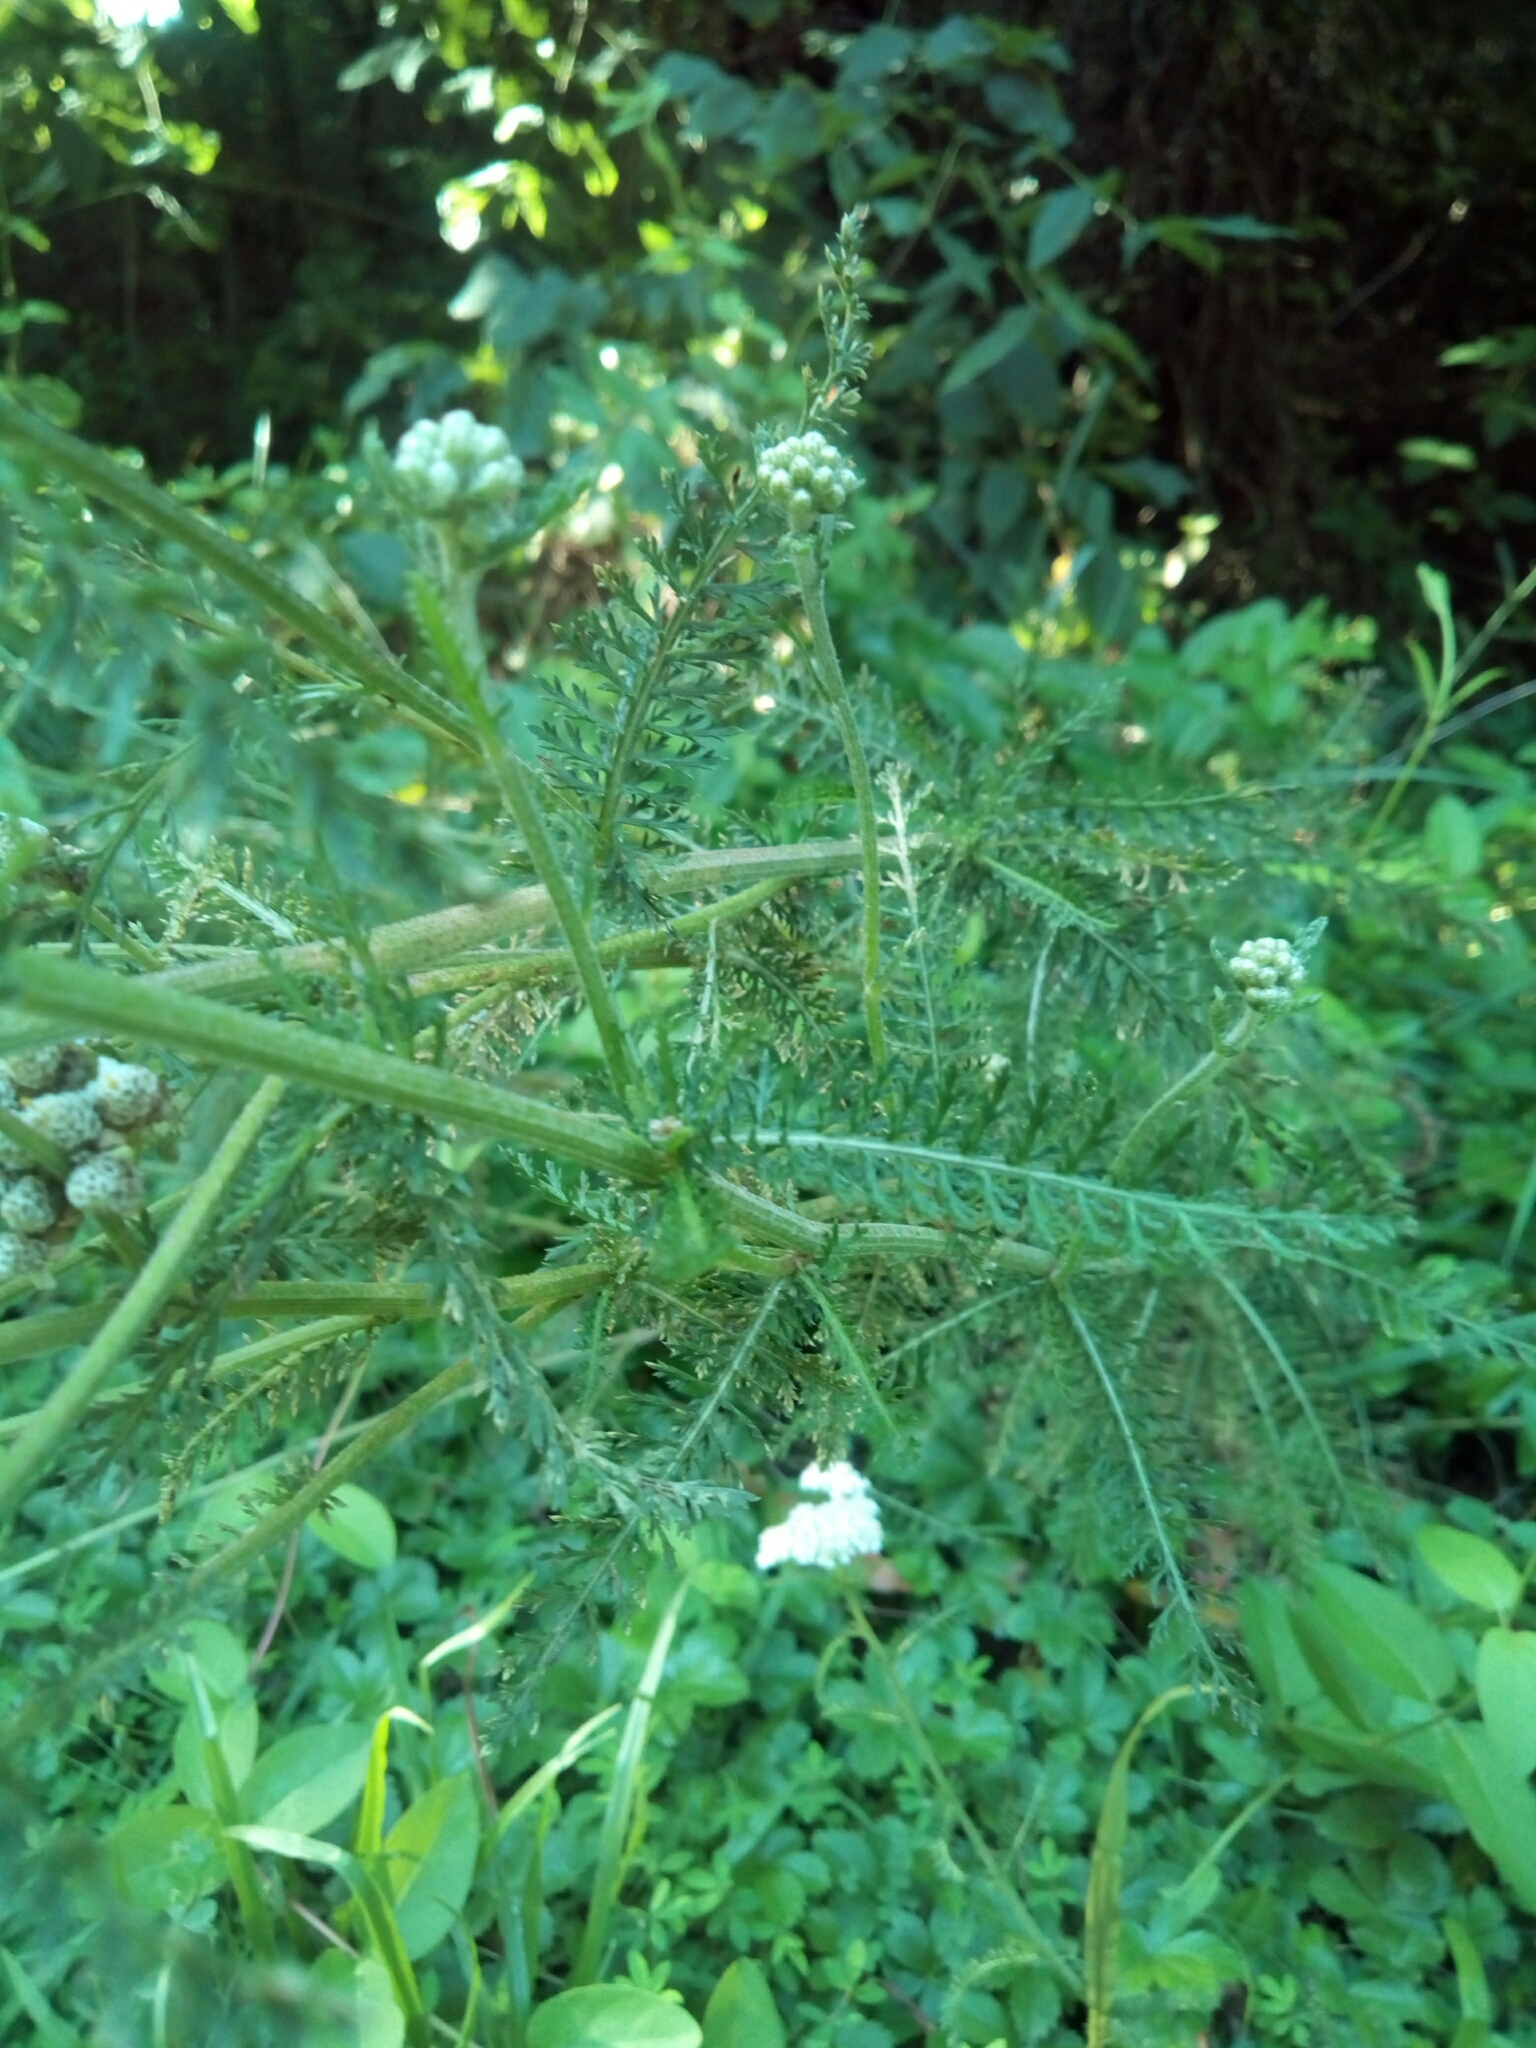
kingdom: Plantae
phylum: Tracheophyta
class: Magnoliopsida
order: Asterales
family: Asteraceae
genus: Achillea
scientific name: Achillea millefolium
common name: Yarrow
